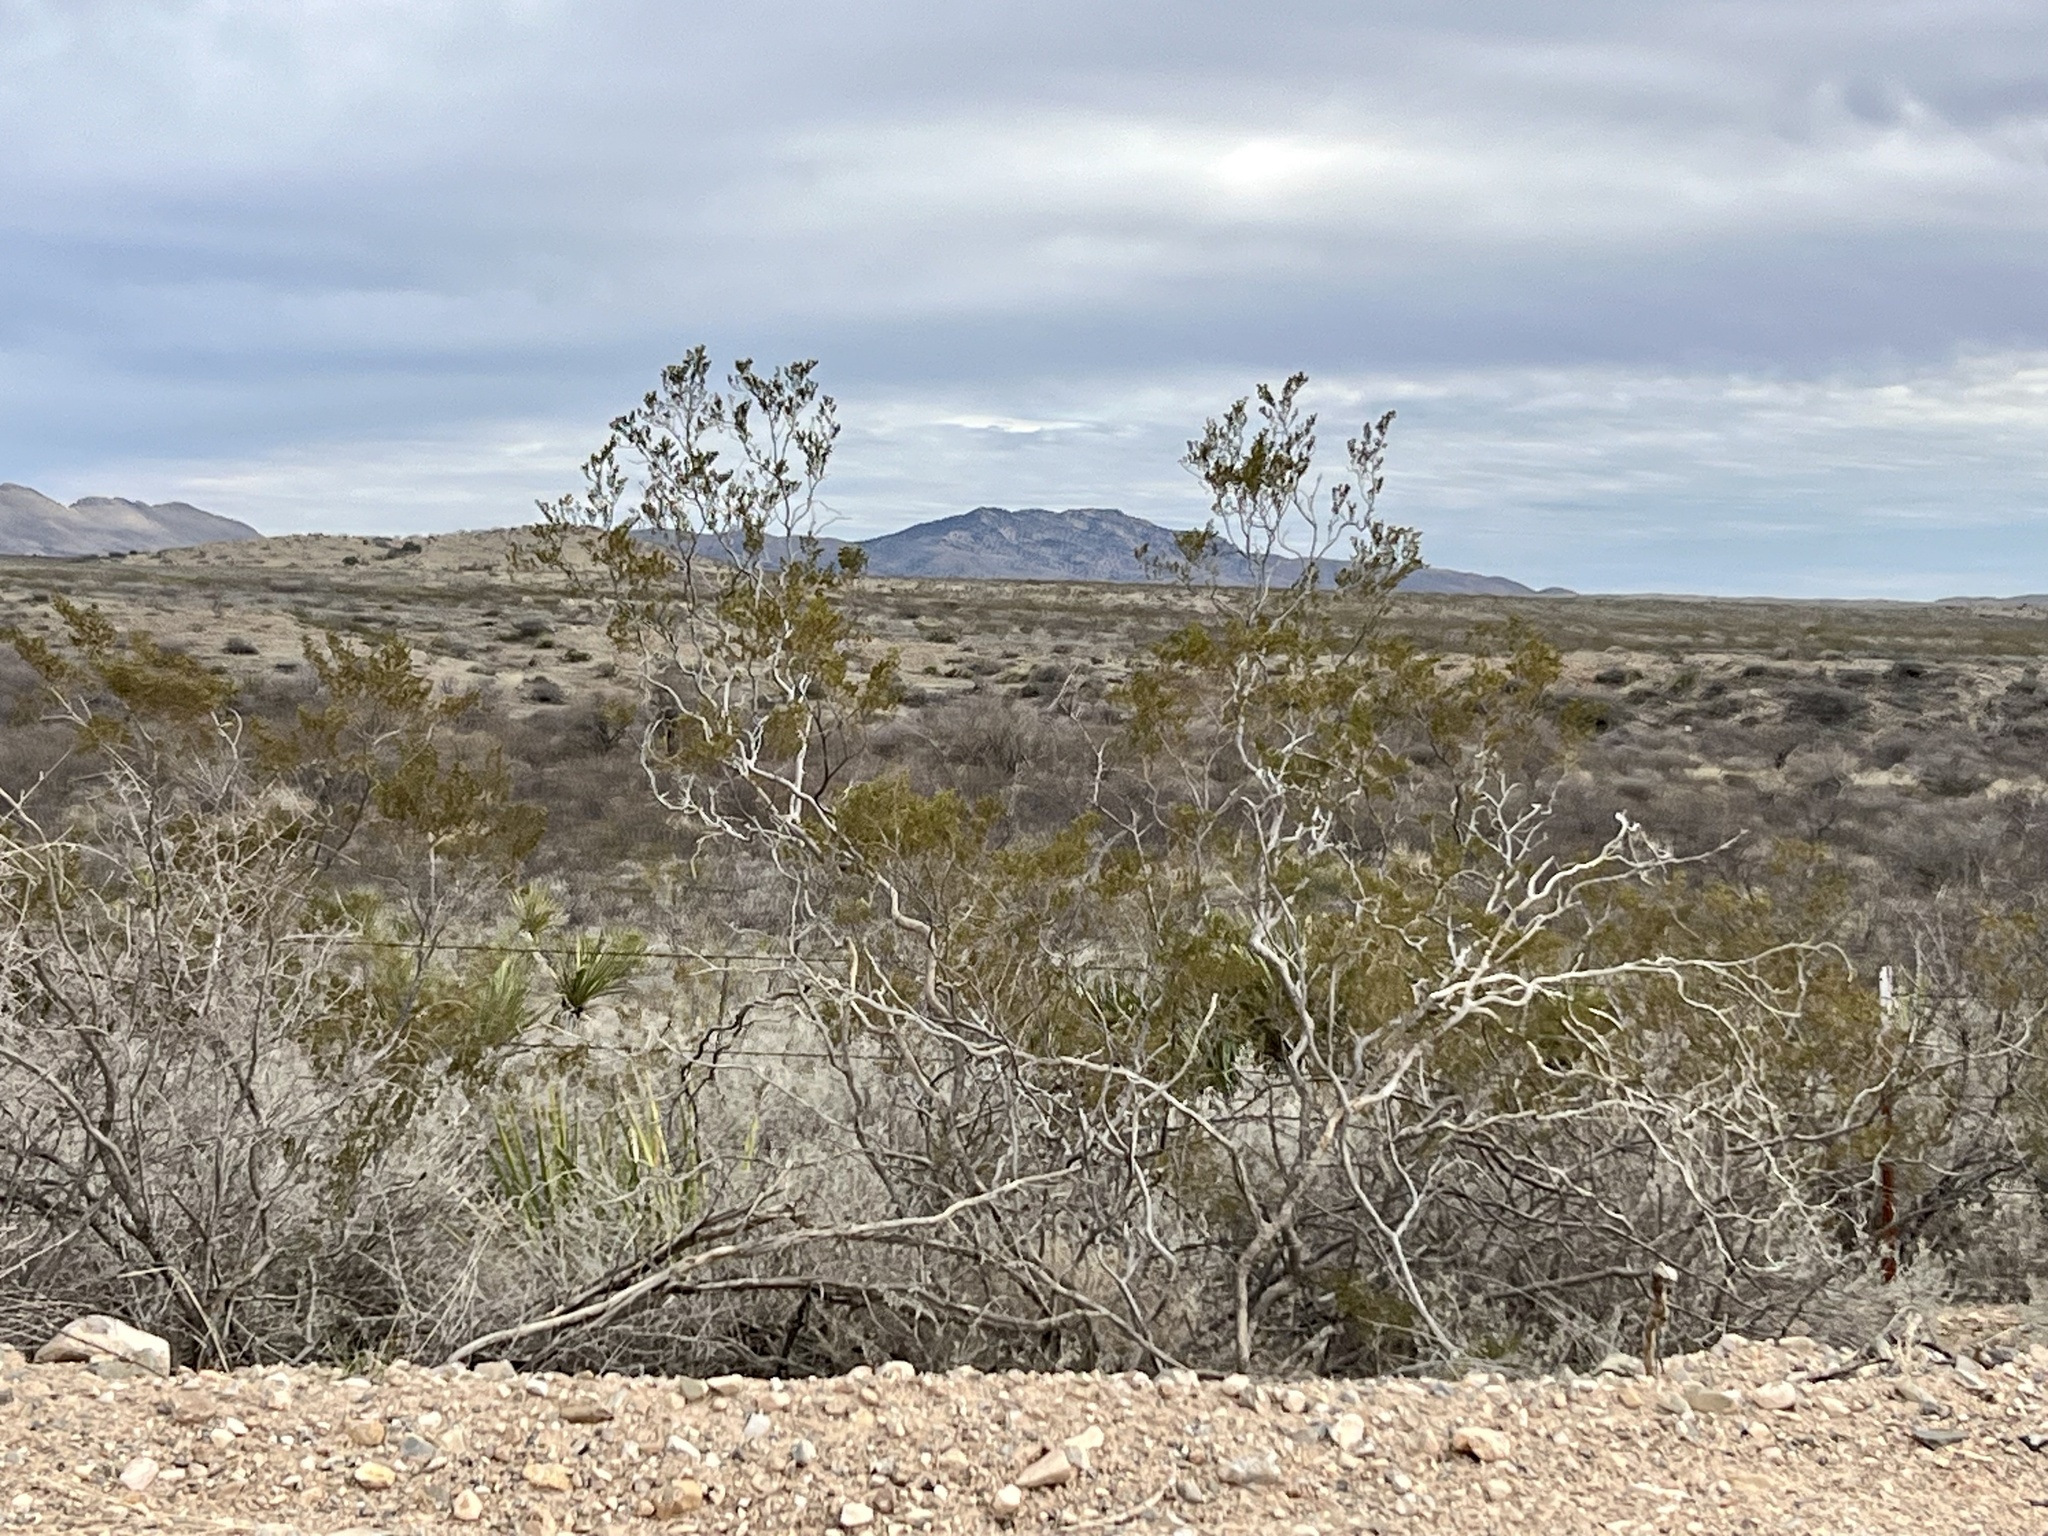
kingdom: Plantae
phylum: Tracheophyta
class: Magnoliopsida
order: Zygophyllales
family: Zygophyllaceae
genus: Larrea
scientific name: Larrea tridentata
